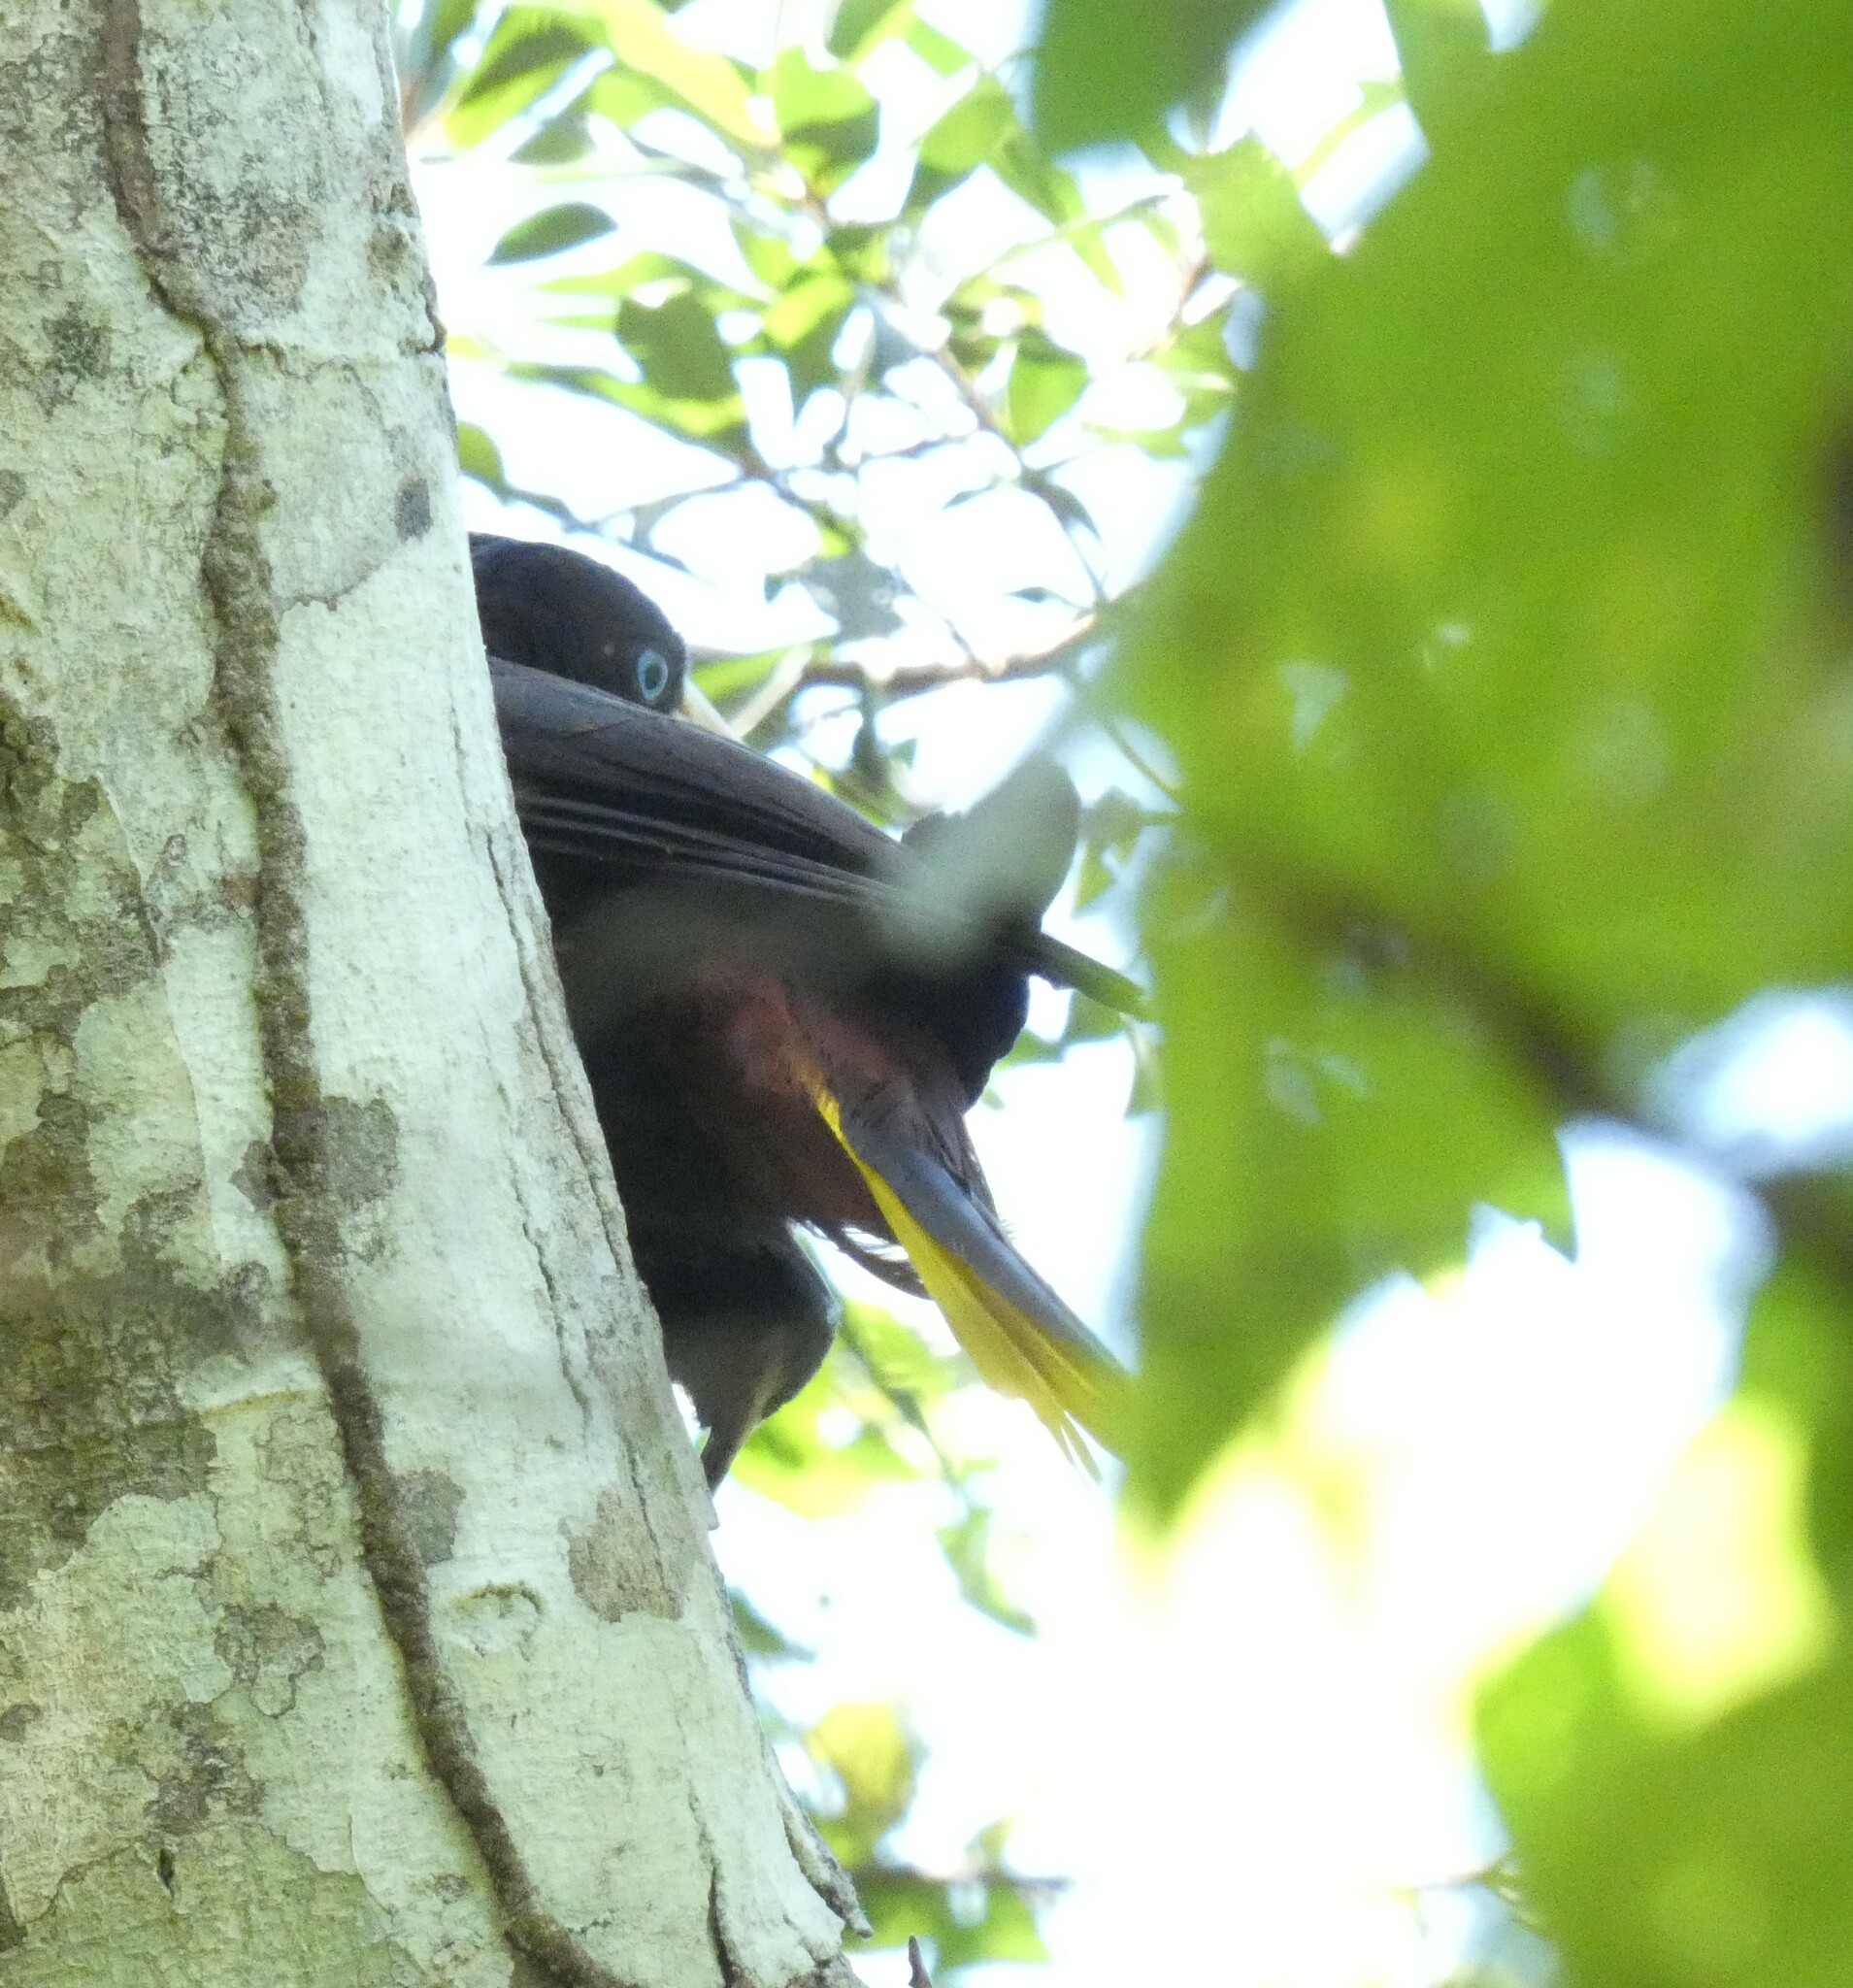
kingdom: Animalia
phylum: Chordata
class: Aves
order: Passeriformes
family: Icteridae
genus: Psarocolius
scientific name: Psarocolius decumanus
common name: Crested oropendola
